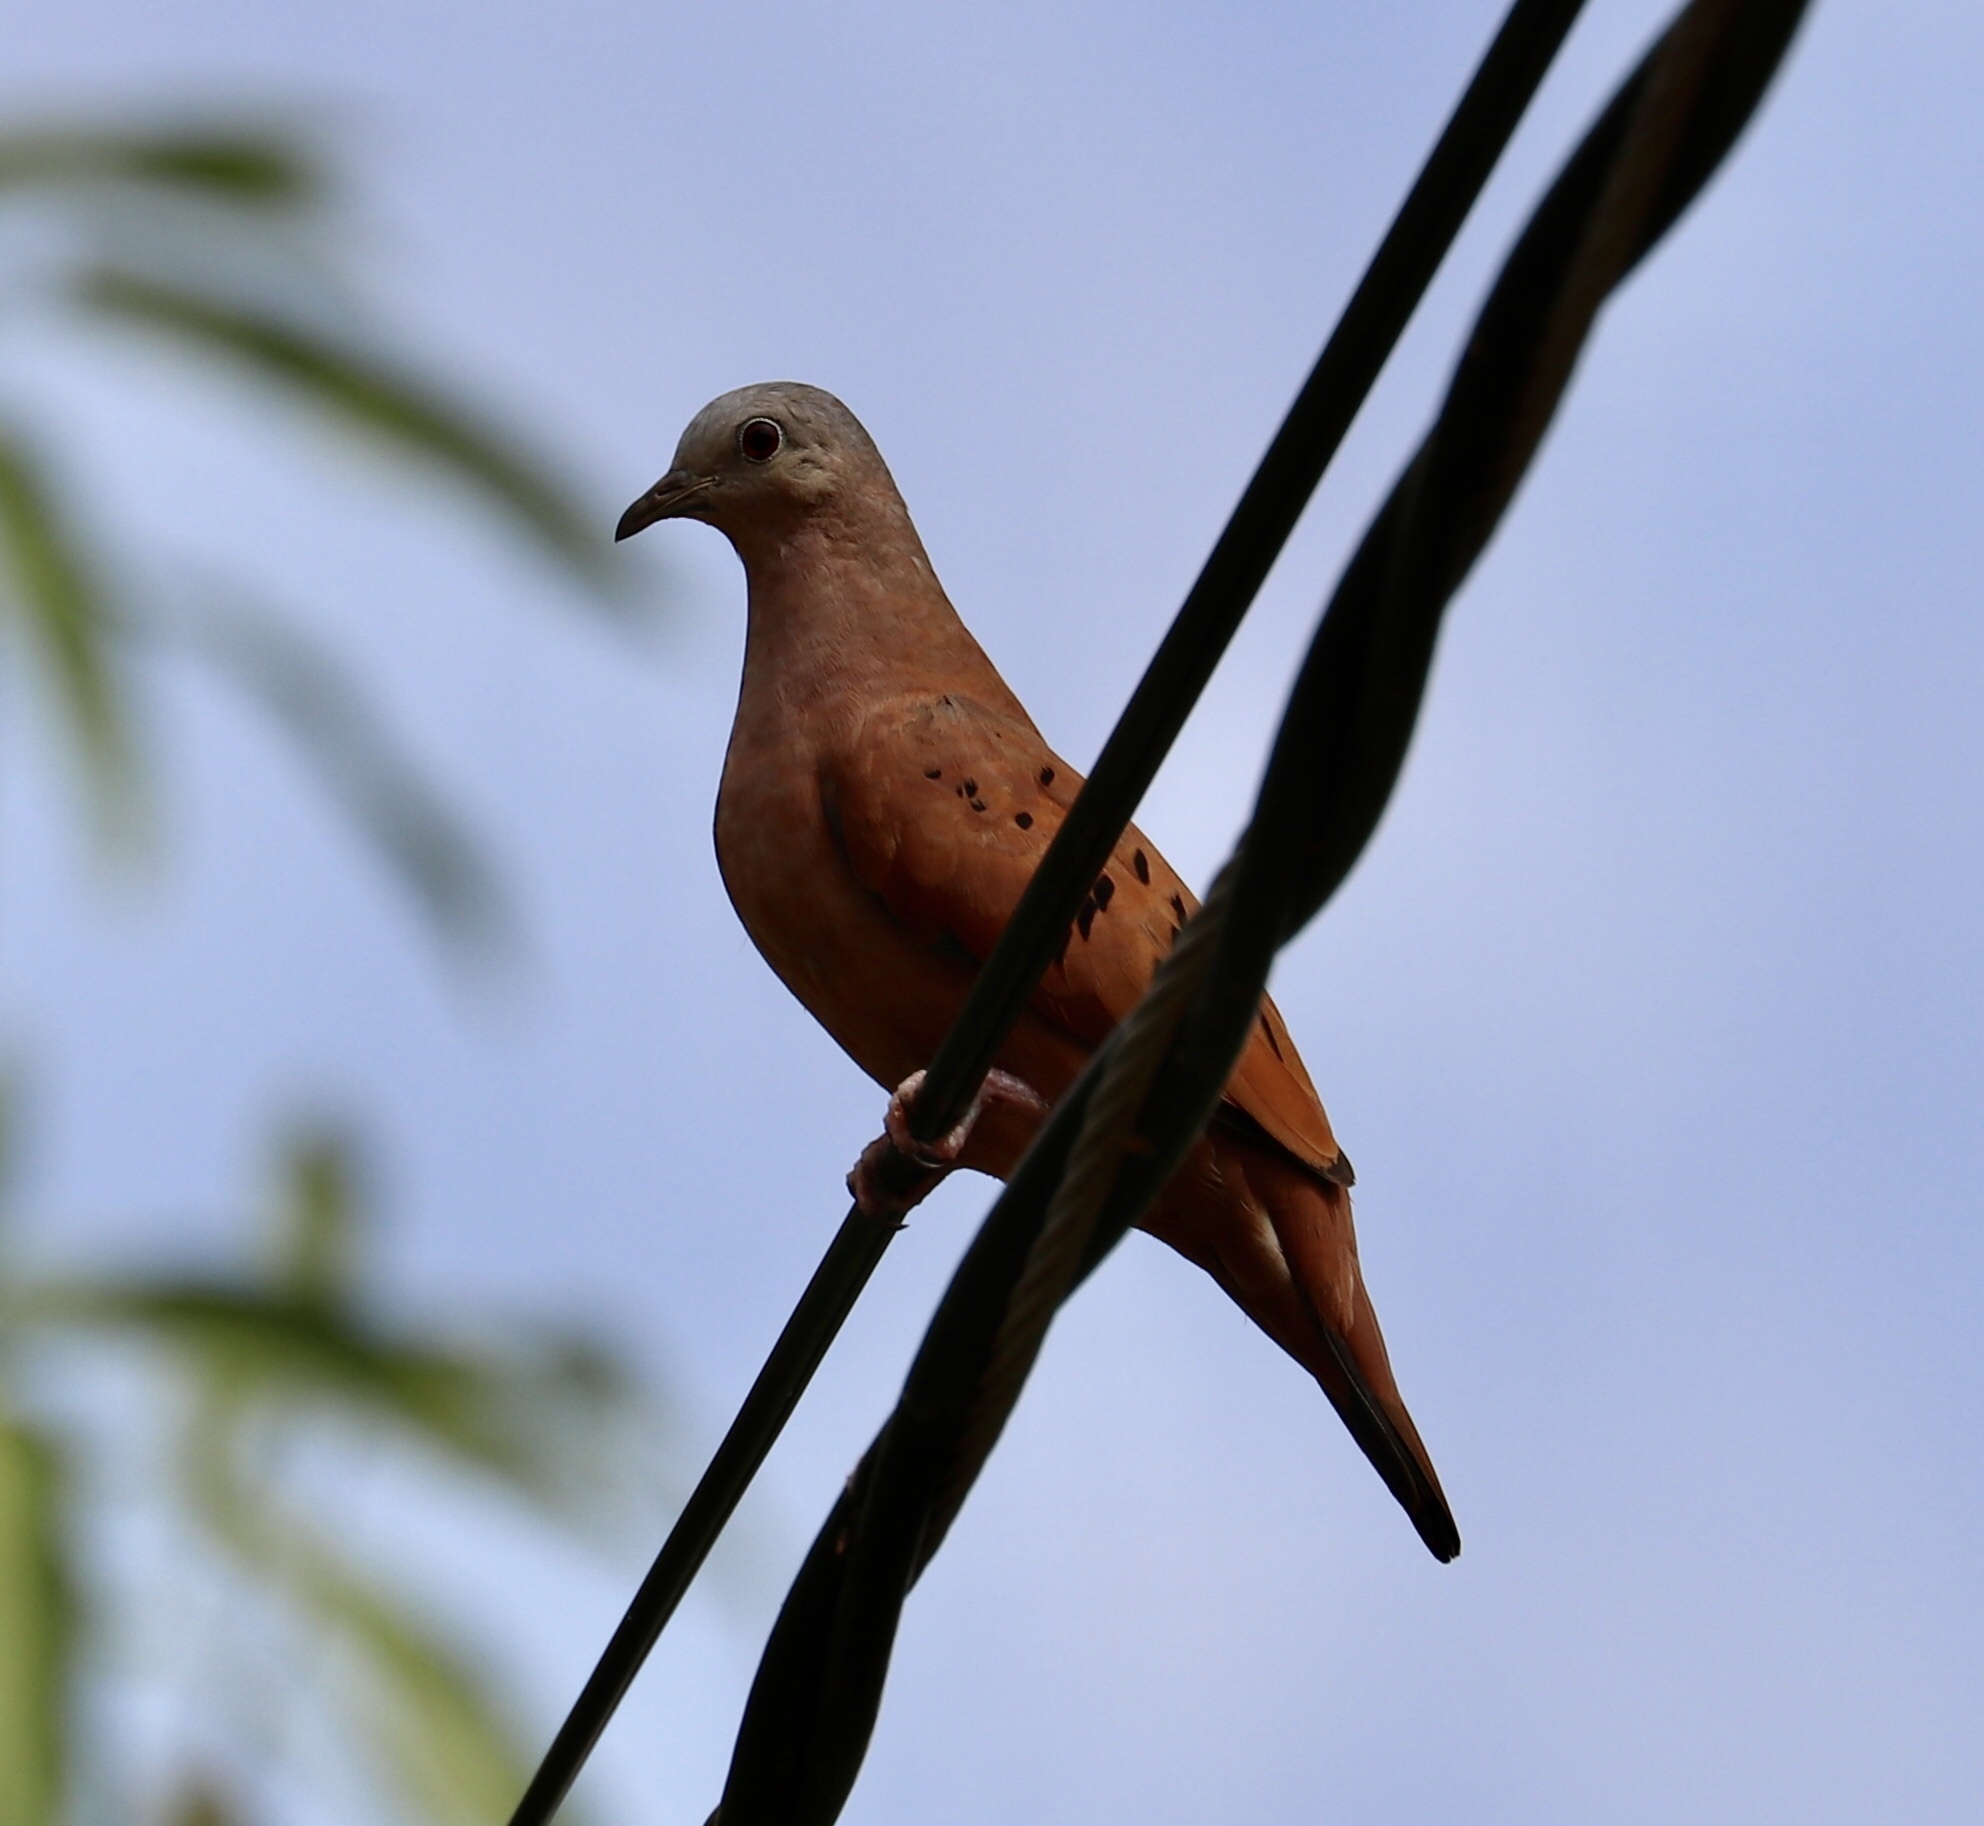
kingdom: Animalia
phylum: Chordata
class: Aves
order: Columbiformes
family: Columbidae
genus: Columbina
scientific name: Columbina talpacoti
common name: Ruddy ground dove
